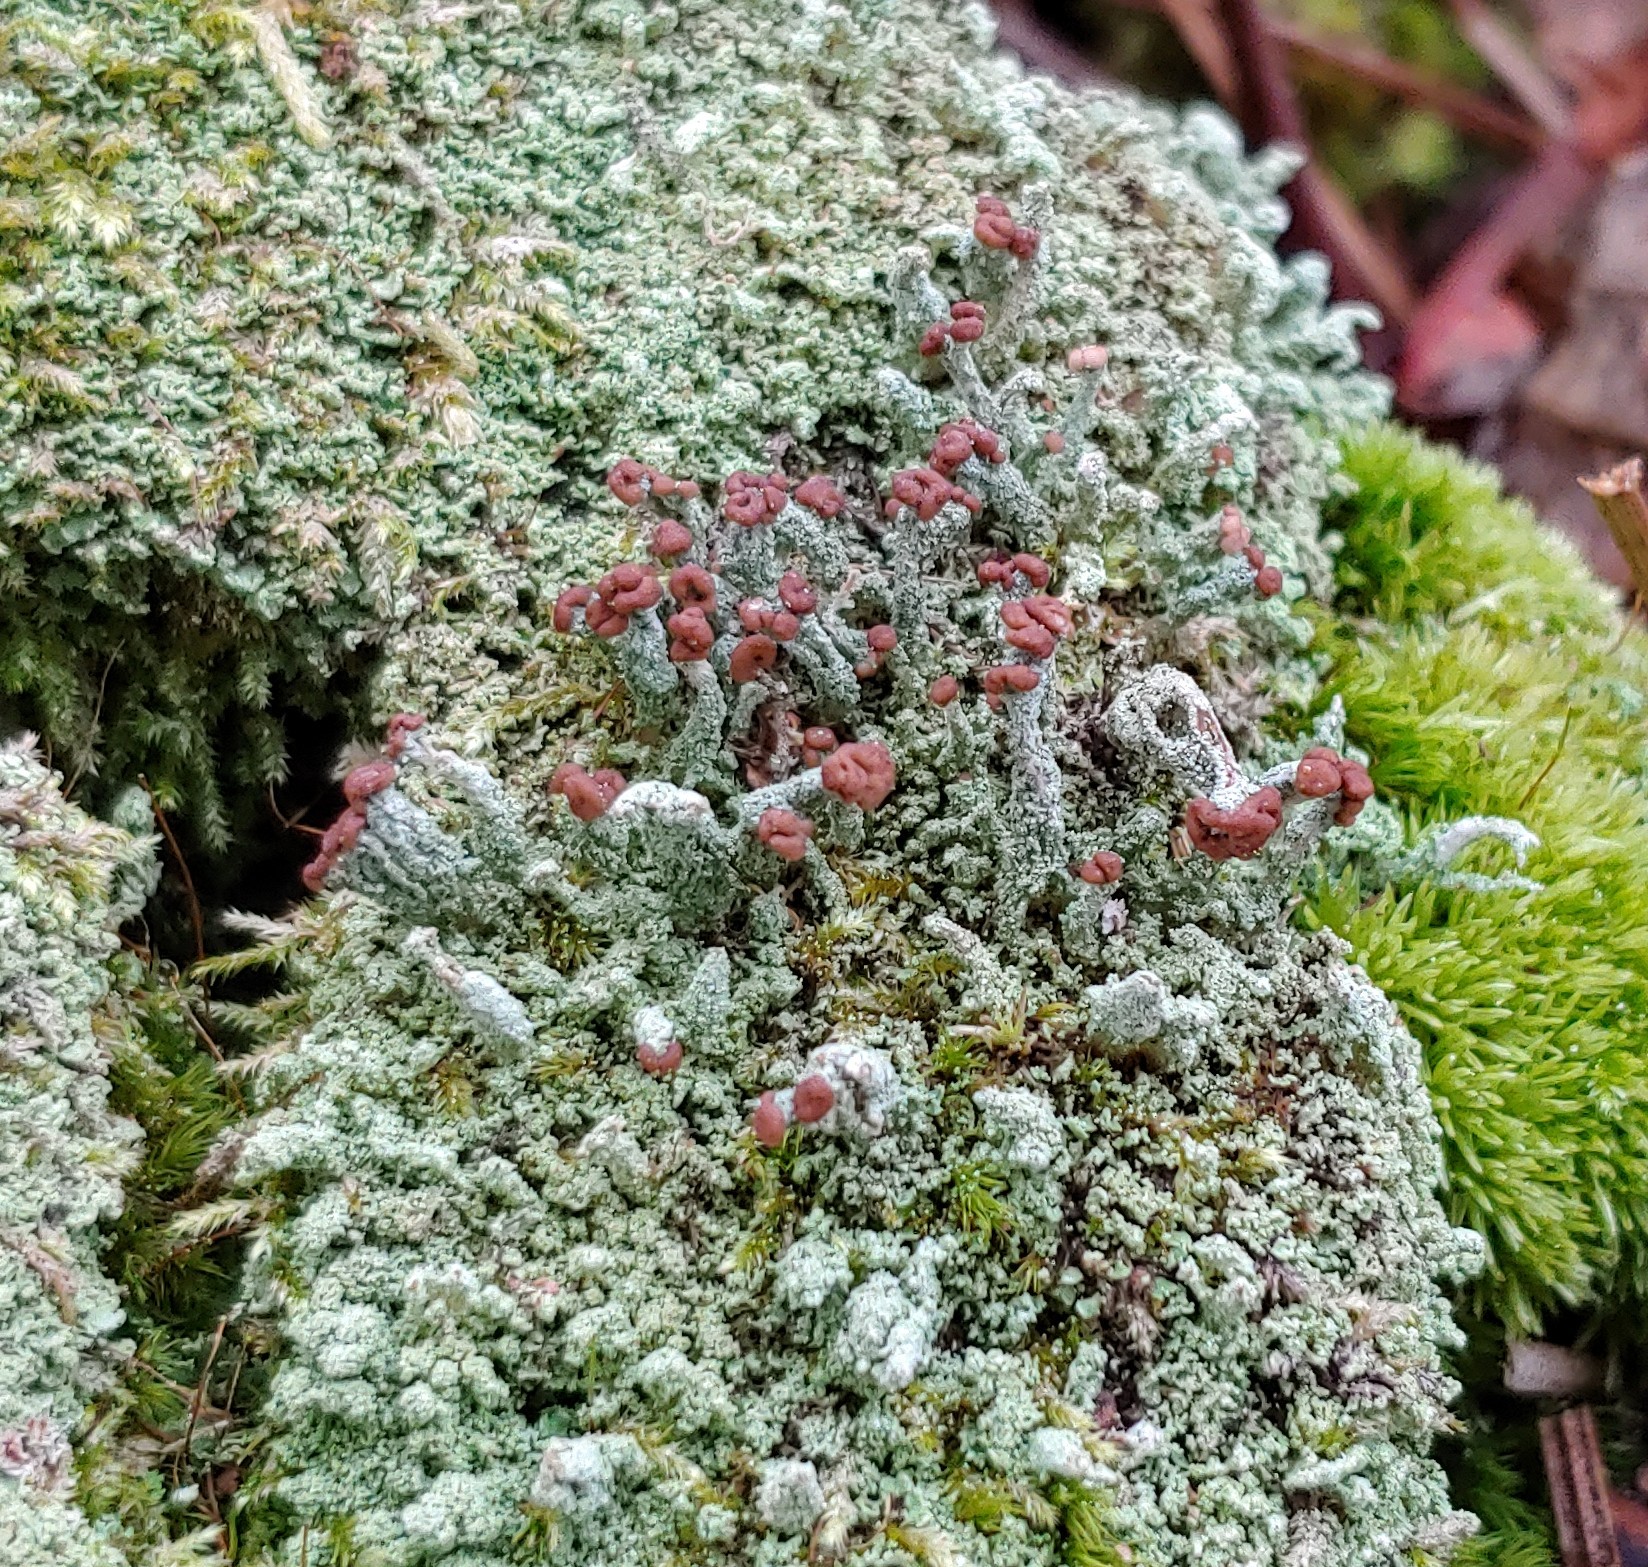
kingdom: Fungi
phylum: Ascomycota
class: Lecanoromycetes
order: Lecanorales
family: Cladoniaceae
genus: Cladonia
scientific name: Cladonia peziziformis
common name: Cup lichen
